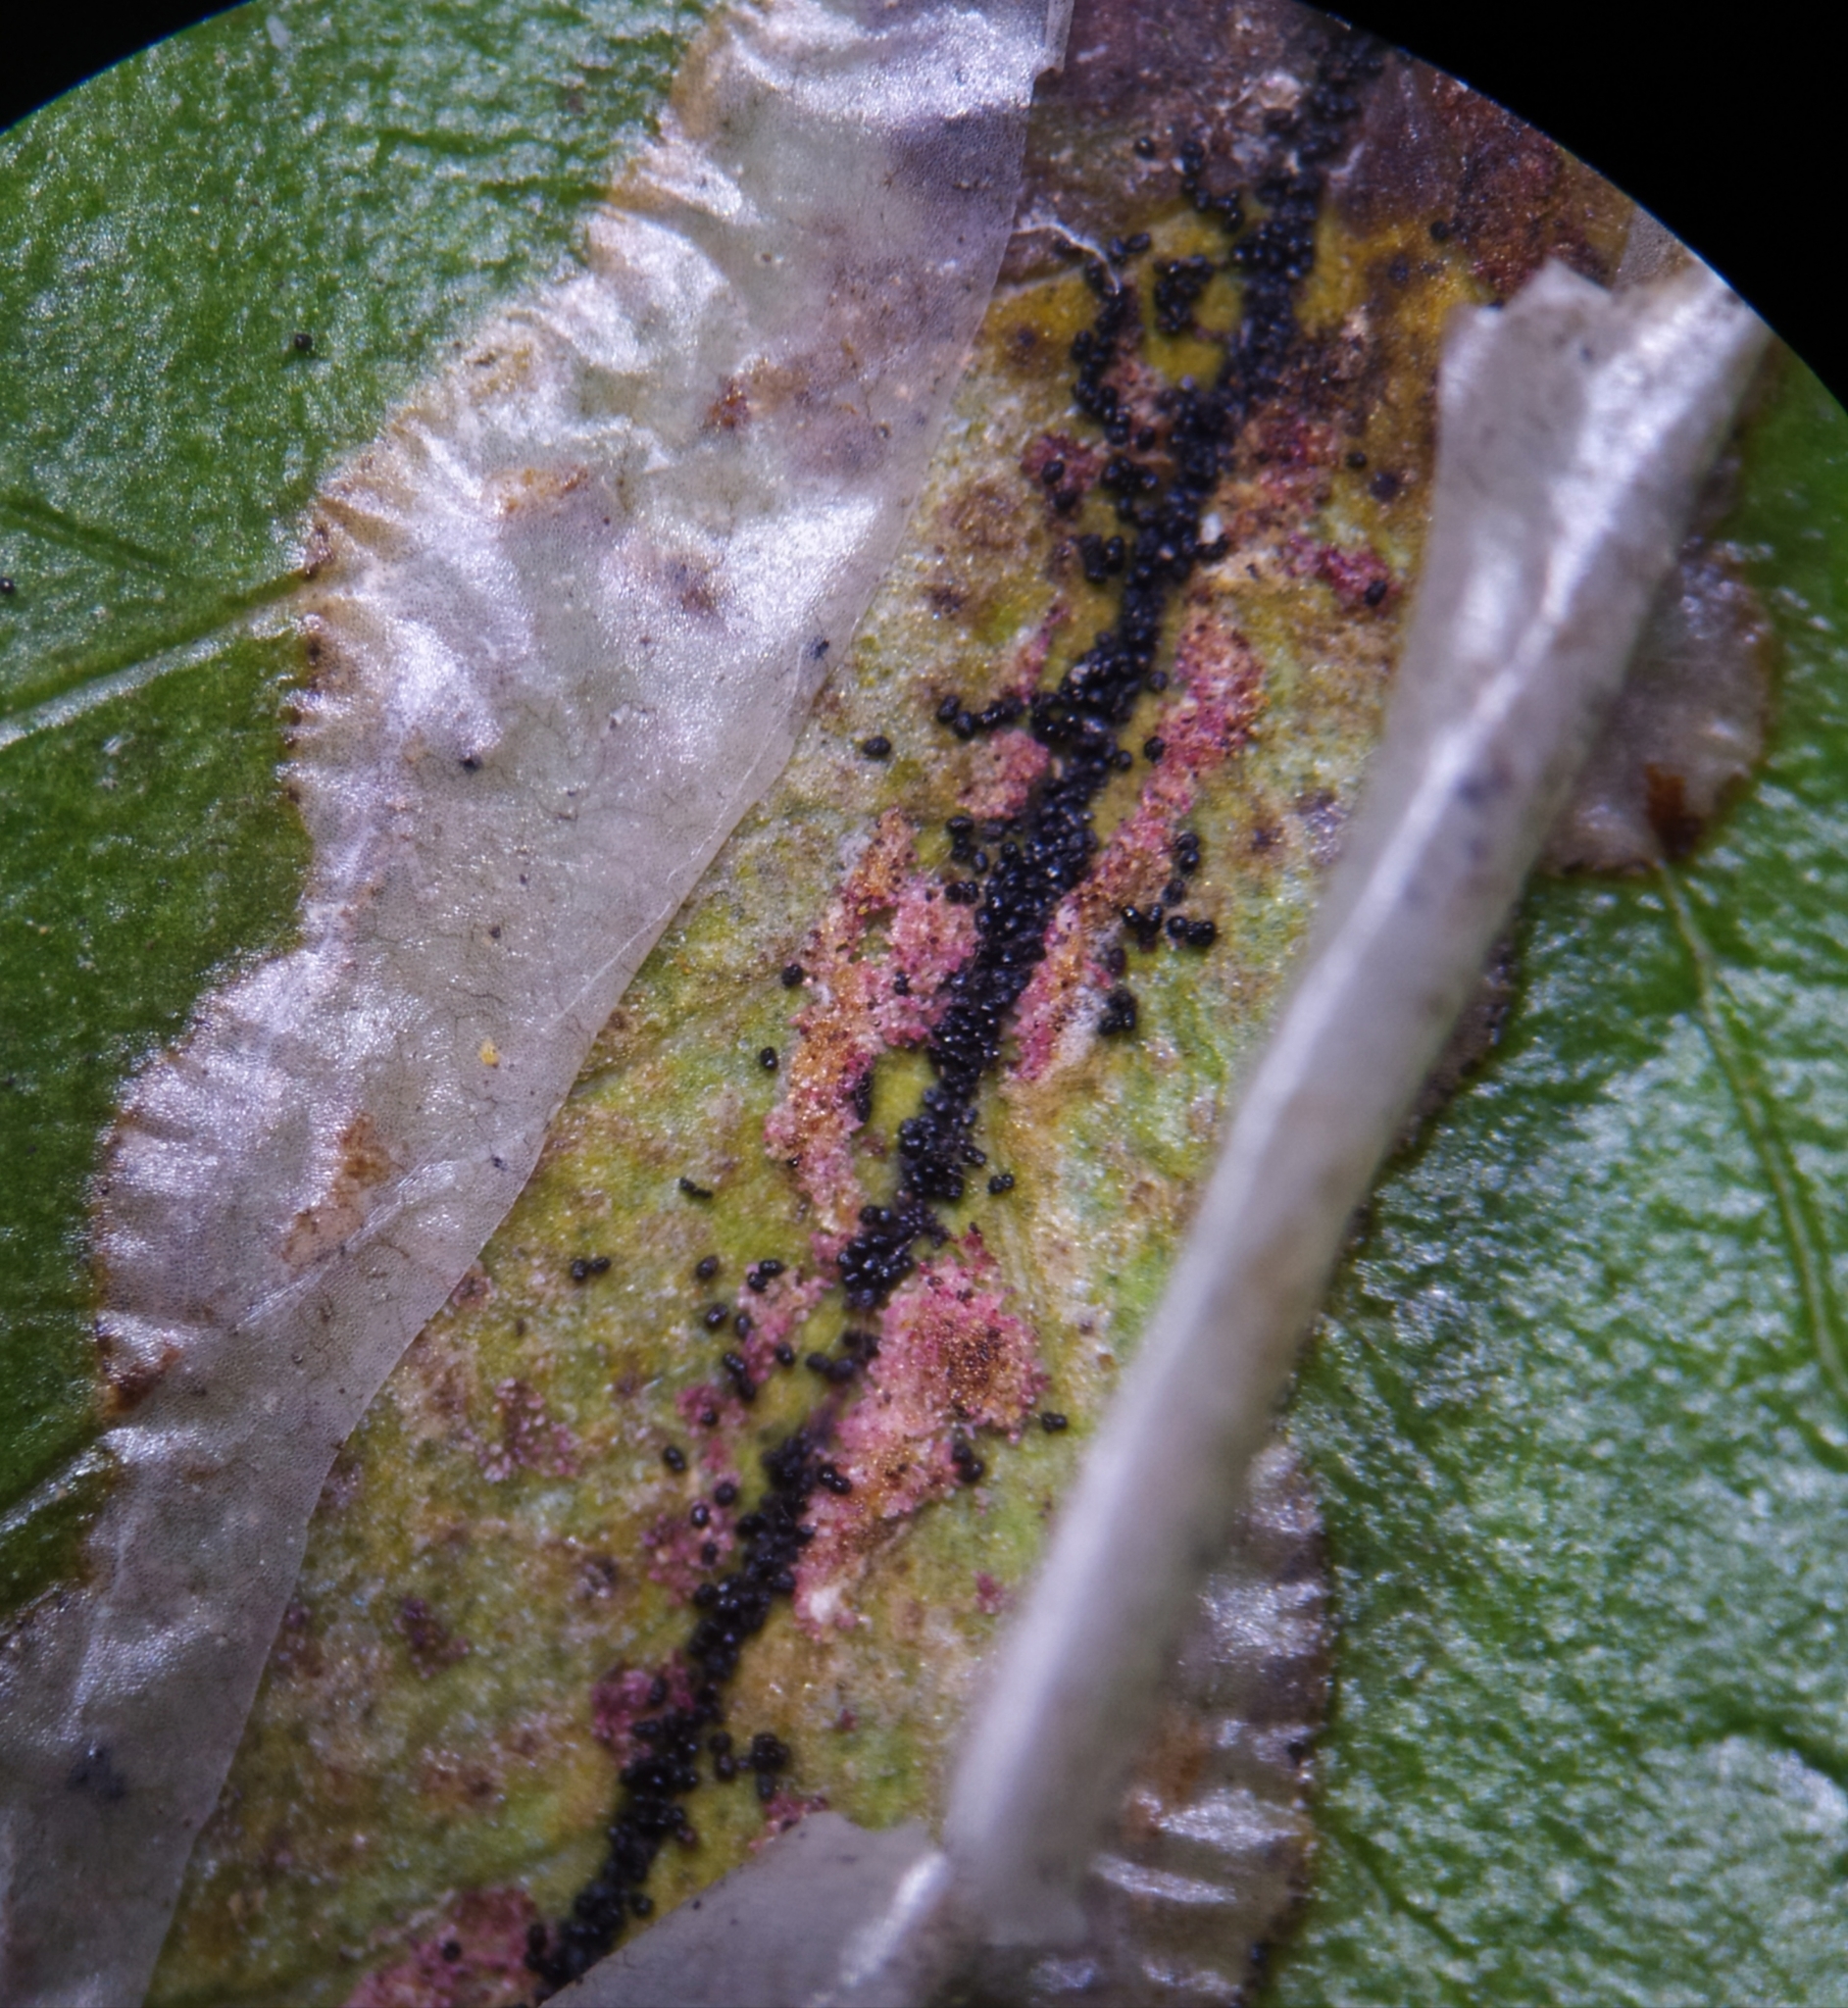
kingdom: Animalia
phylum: Arthropoda
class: Insecta
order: Lepidoptera
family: Gracillariidae
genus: Phyllonorycter
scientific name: Phyllonorycter leucographella
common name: Firethorn leaf-miner
